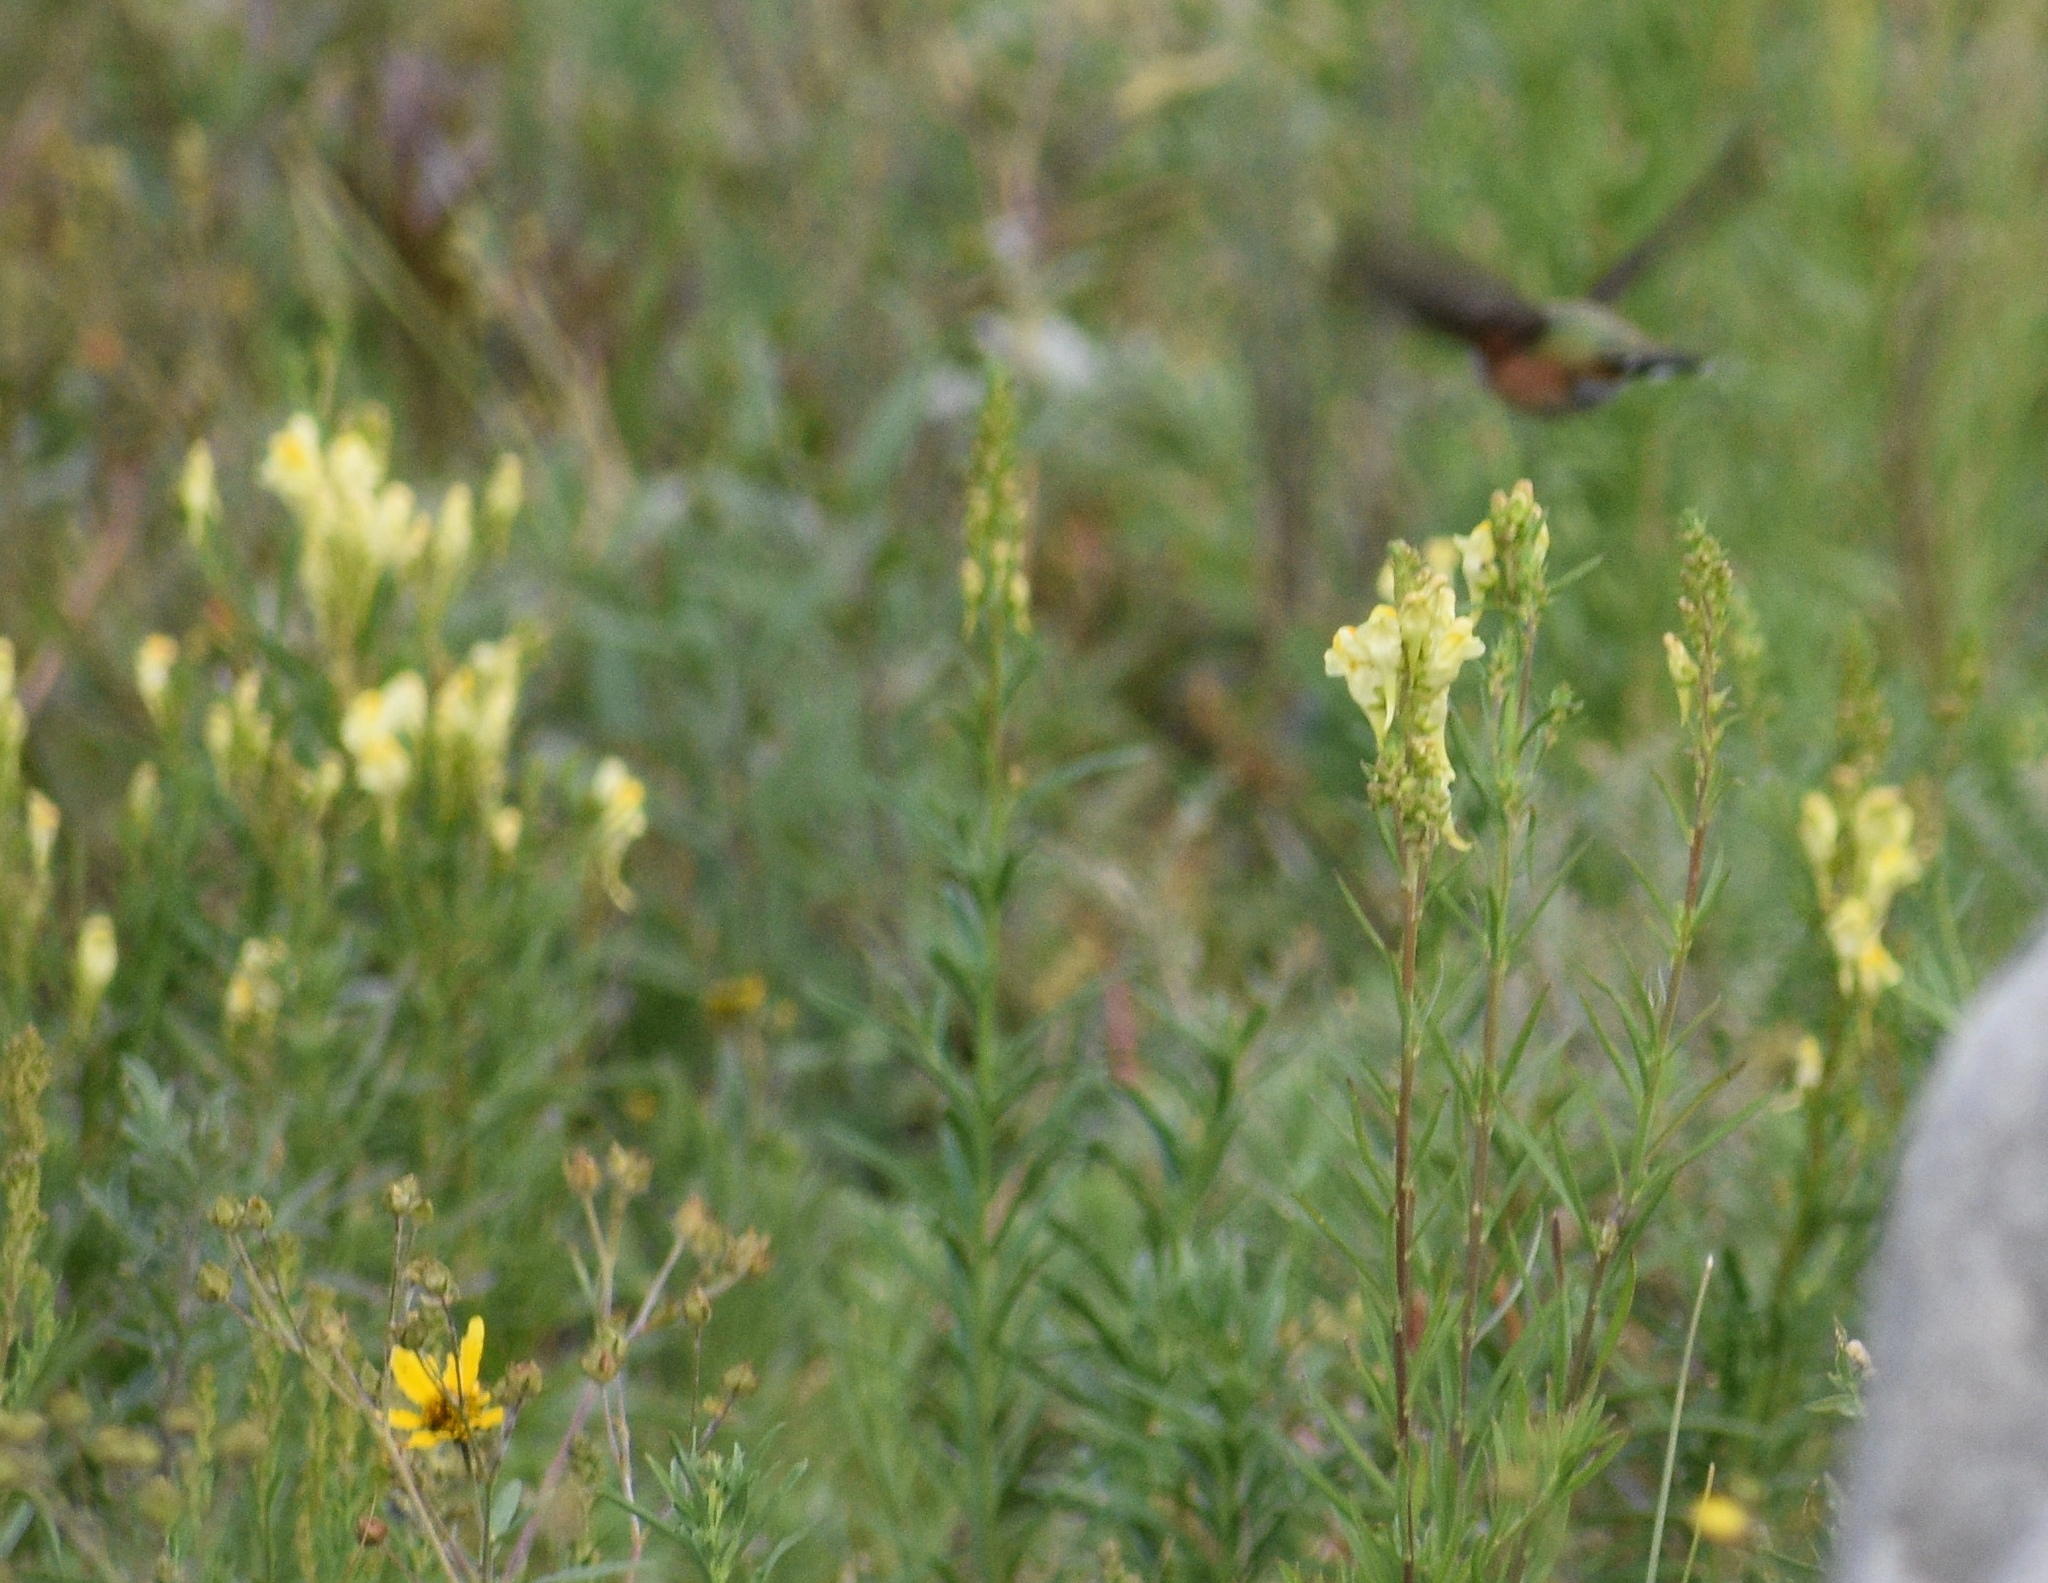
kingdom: Animalia
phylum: Chordata
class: Aves
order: Apodiformes
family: Trochilidae
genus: Selasphorus
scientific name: Selasphorus platycercus
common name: Broad-tailed hummingbird
